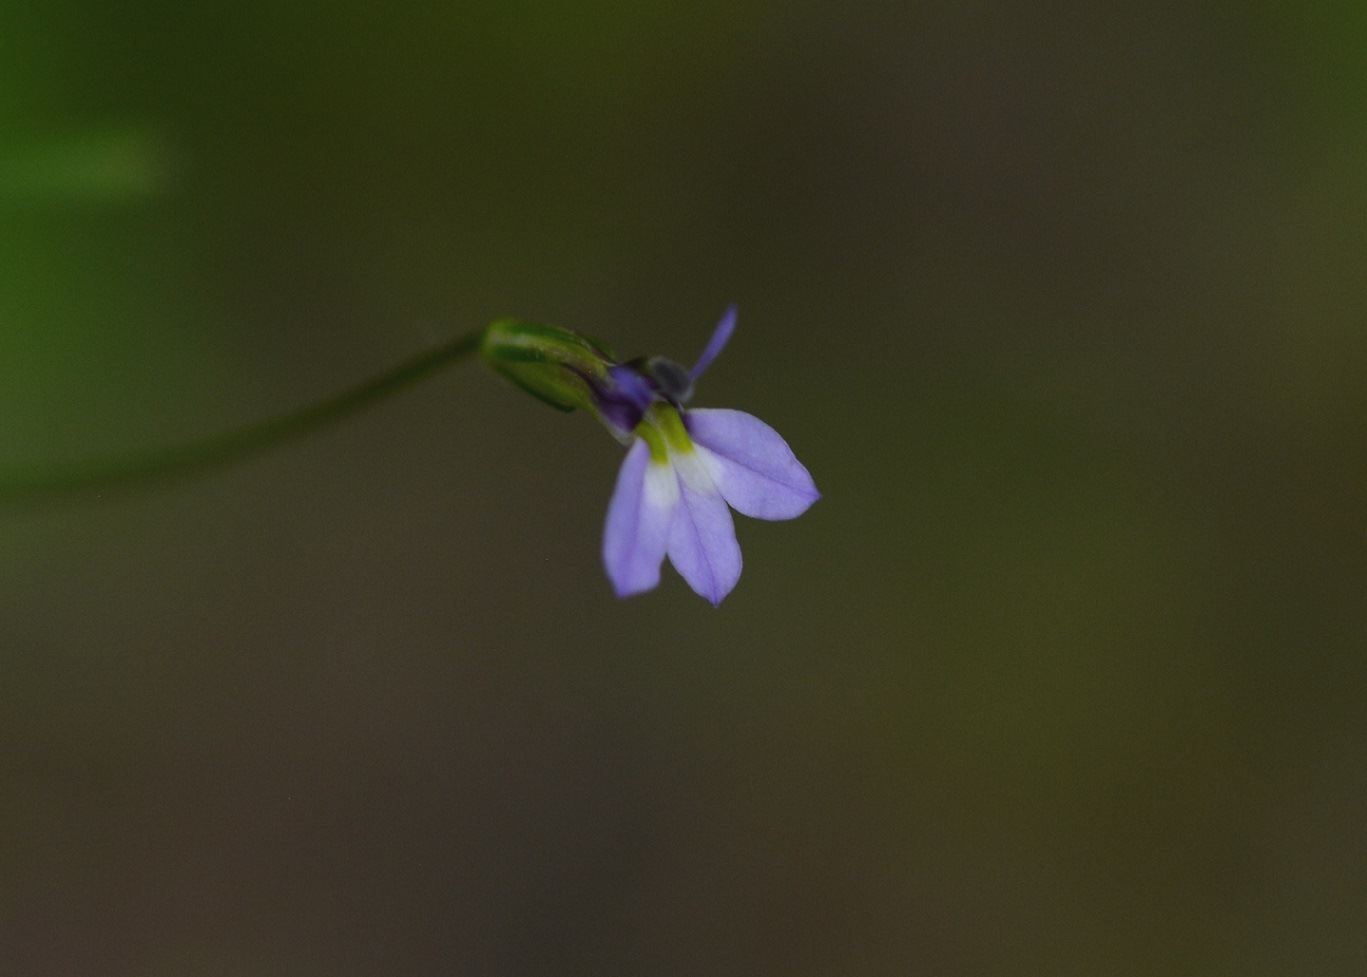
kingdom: Plantae
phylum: Tracheophyta
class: Magnoliopsida
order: Asterales
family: Campanulaceae
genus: Lobelia
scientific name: Lobelia longicaulis
